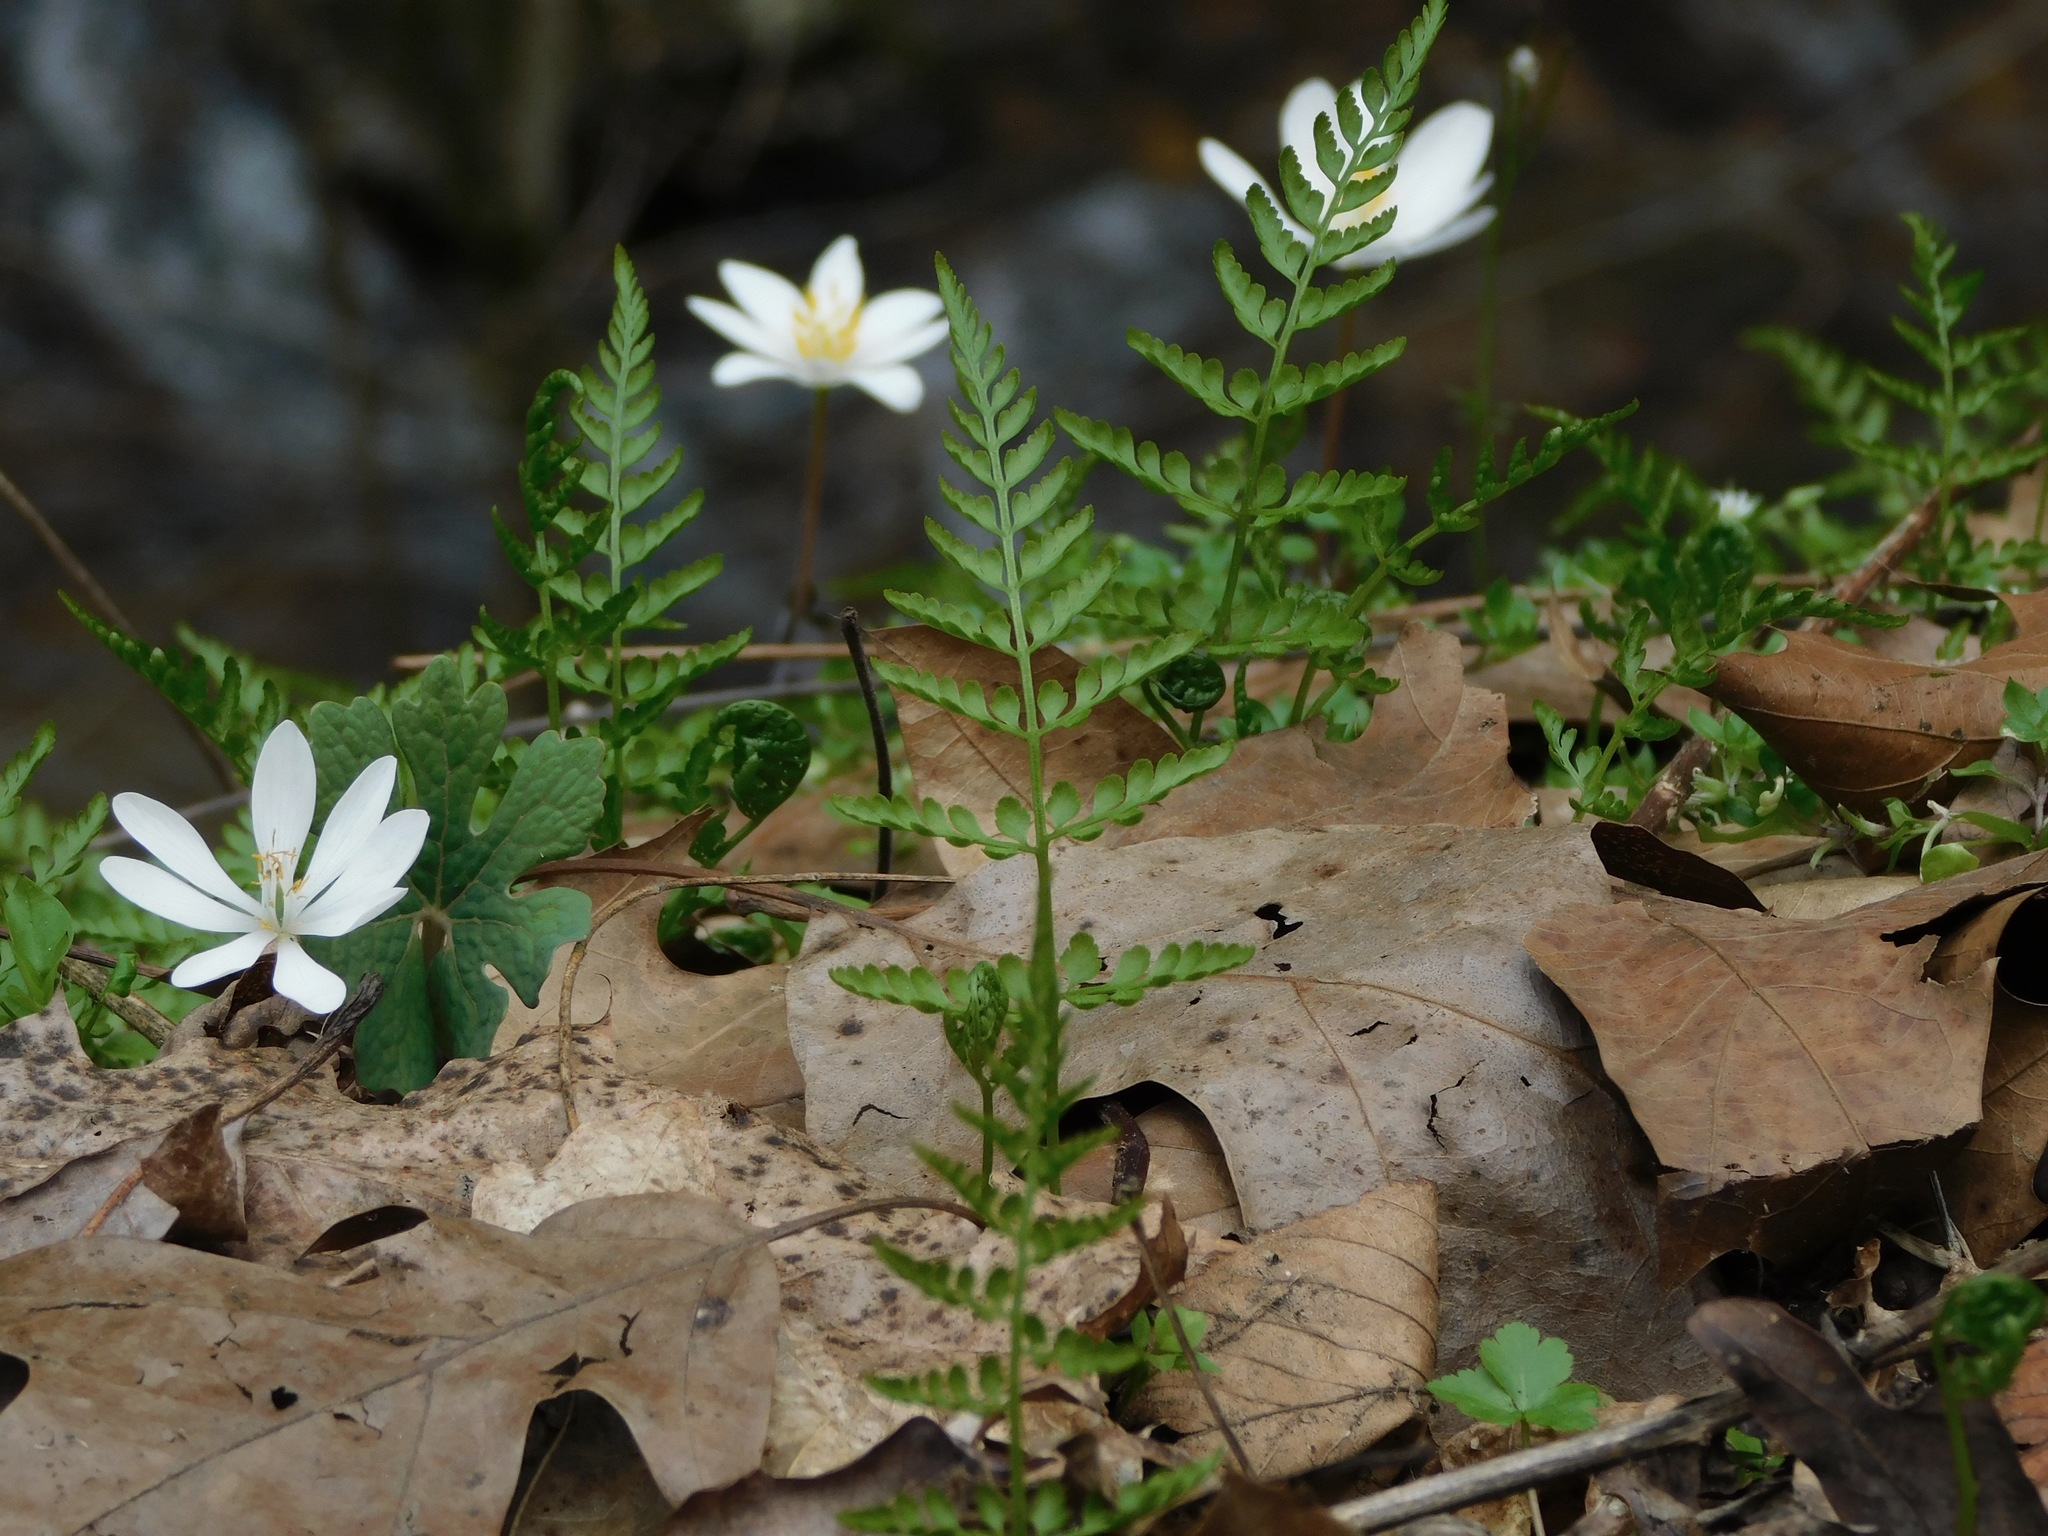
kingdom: Plantae
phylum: Tracheophyta
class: Polypodiopsida
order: Polypodiales
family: Cystopteridaceae
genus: Cystopteris
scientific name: Cystopteris protrusa
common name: Lowland brittle fern
